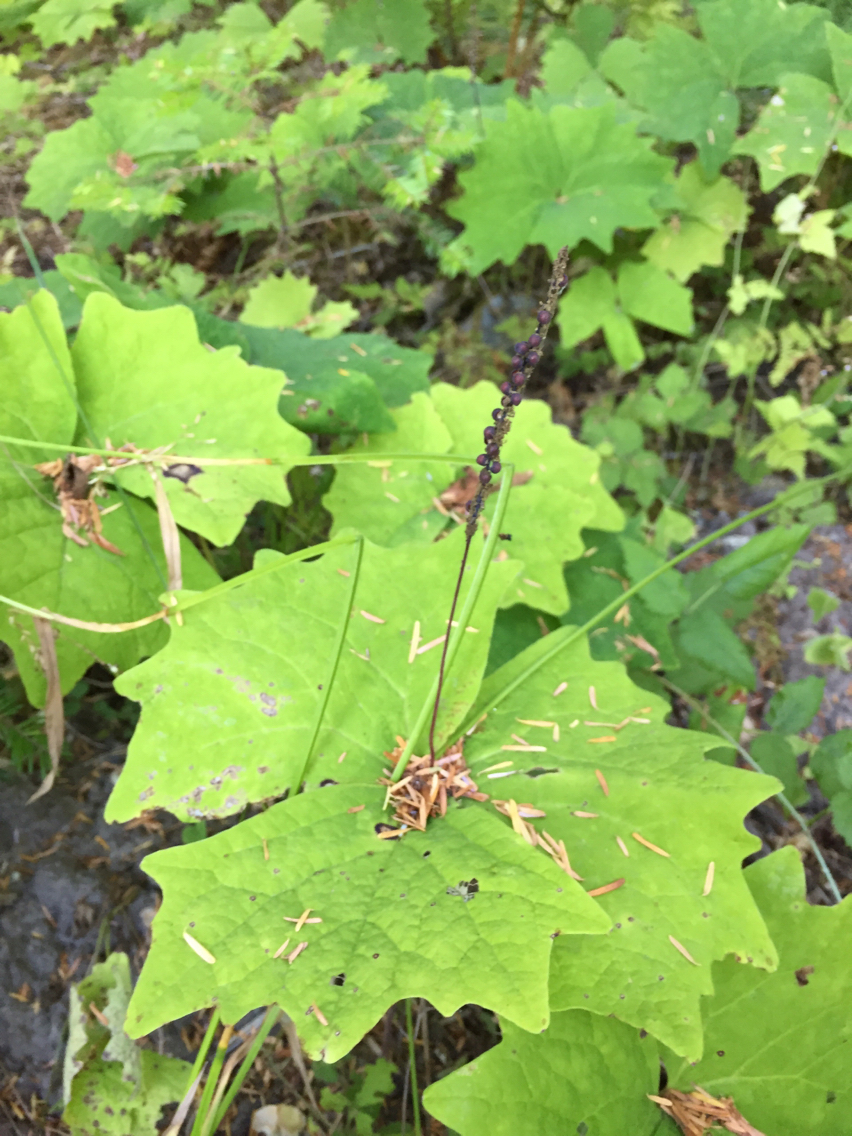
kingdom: Plantae
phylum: Tracheophyta
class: Magnoliopsida
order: Ranunculales
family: Berberidaceae
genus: Achlys
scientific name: Achlys triphylla
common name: Vanilla-leaf
